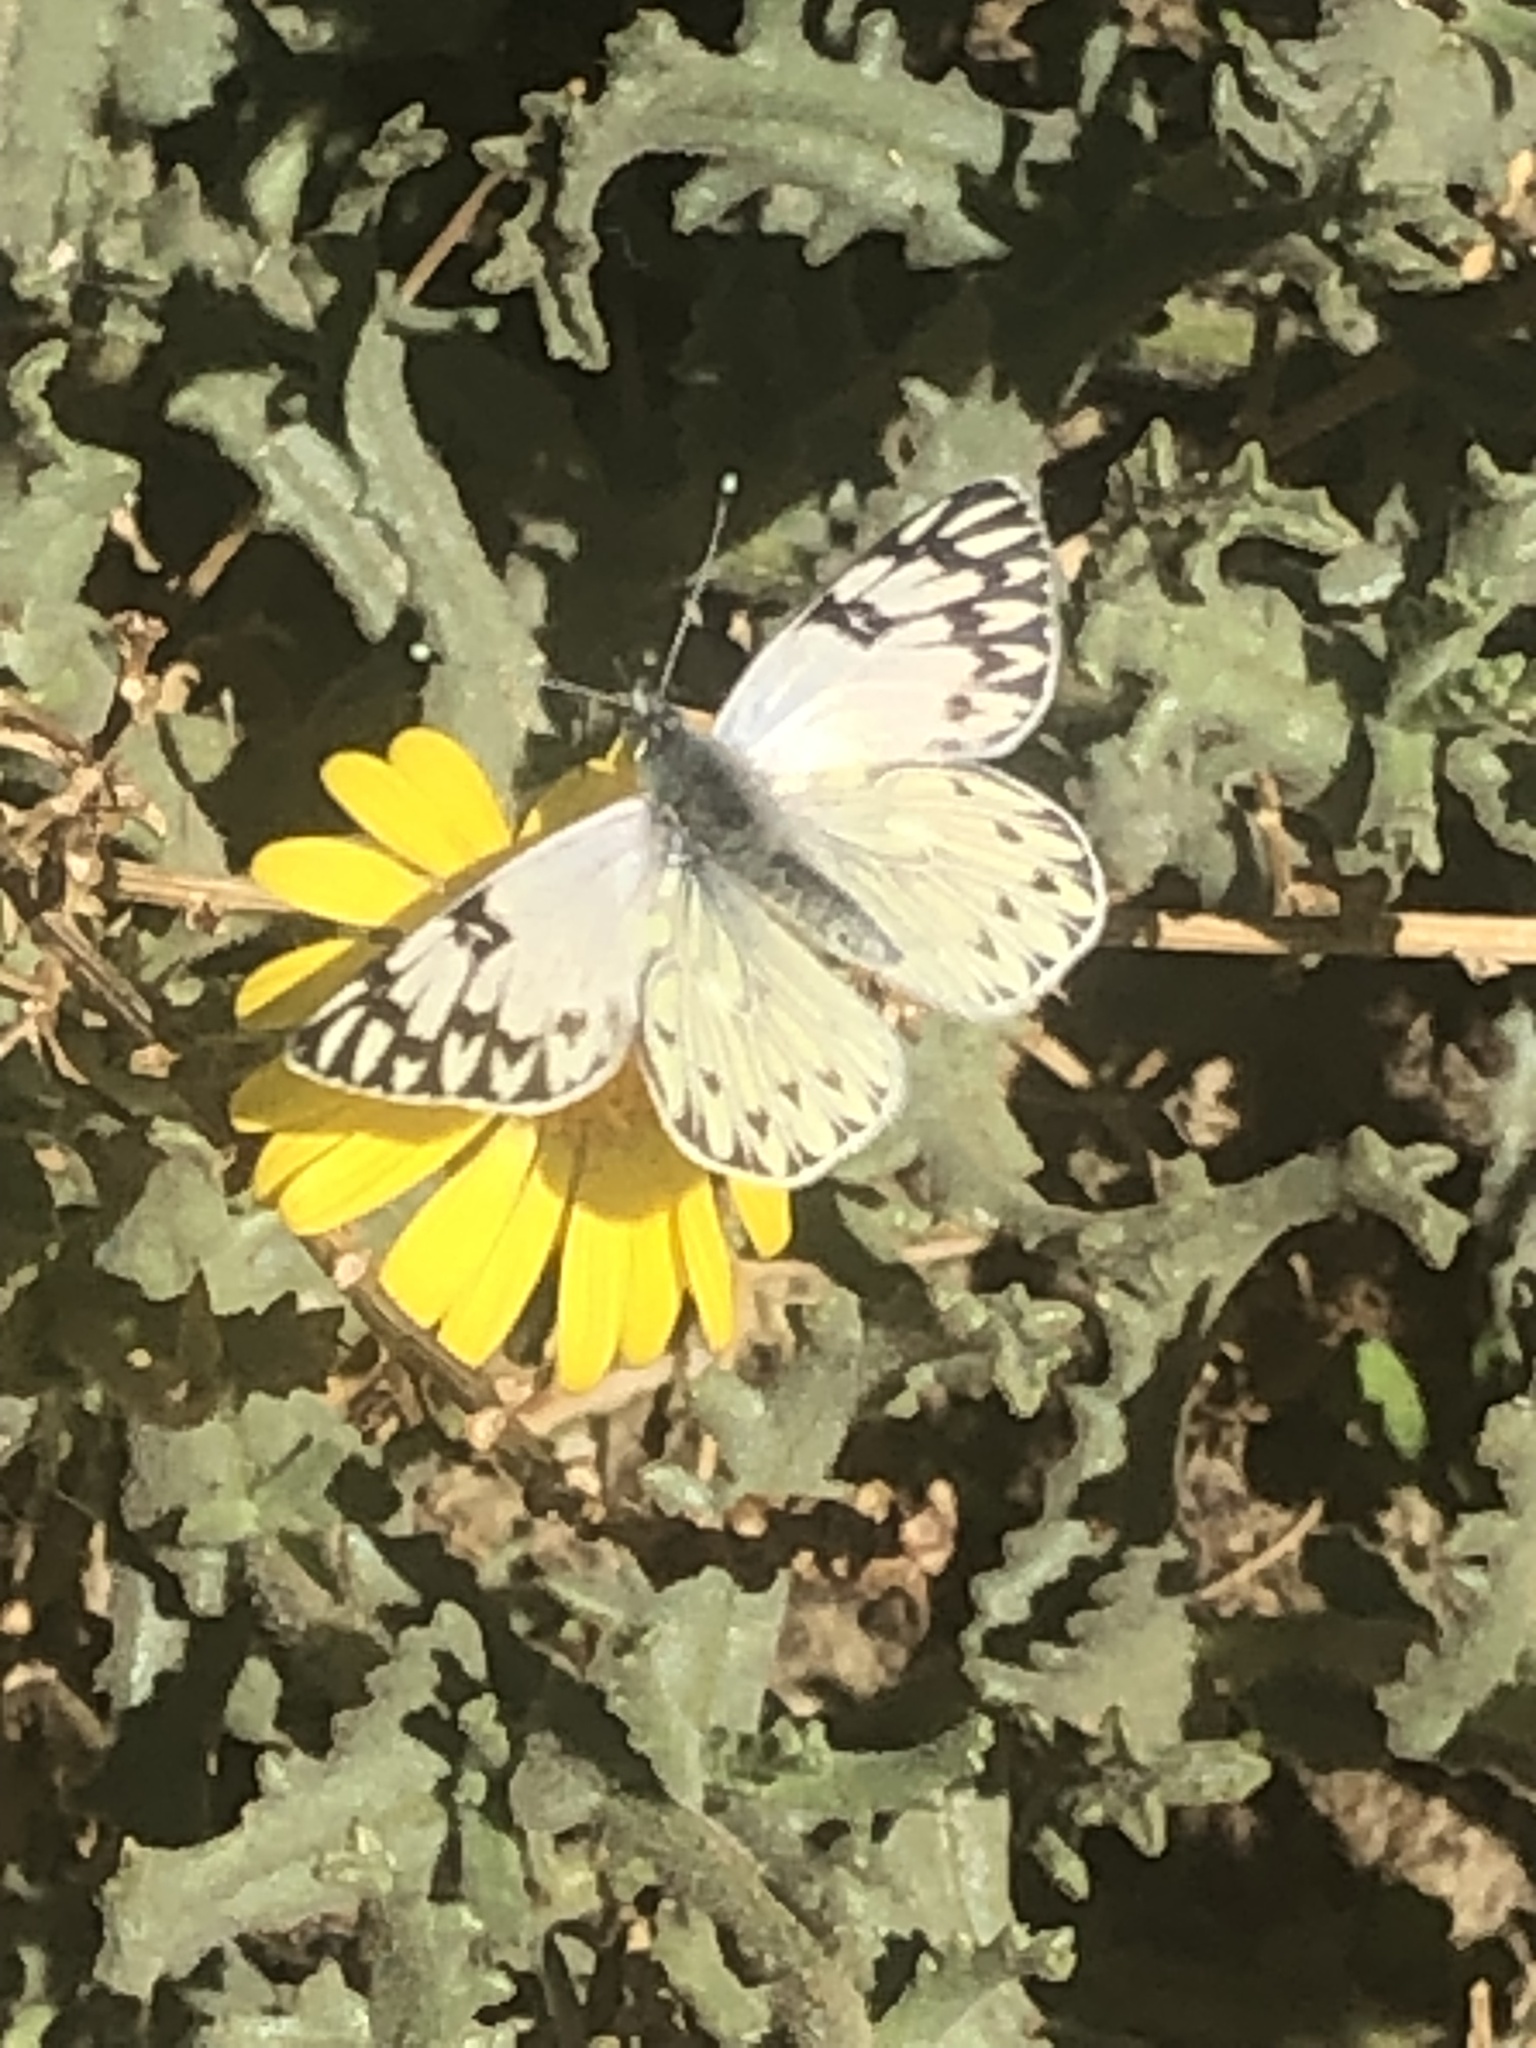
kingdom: Animalia
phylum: Arthropoda
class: Insecta
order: Lepidoptera
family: Pieridae
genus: Tatochila
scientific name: Tatochila autodice
